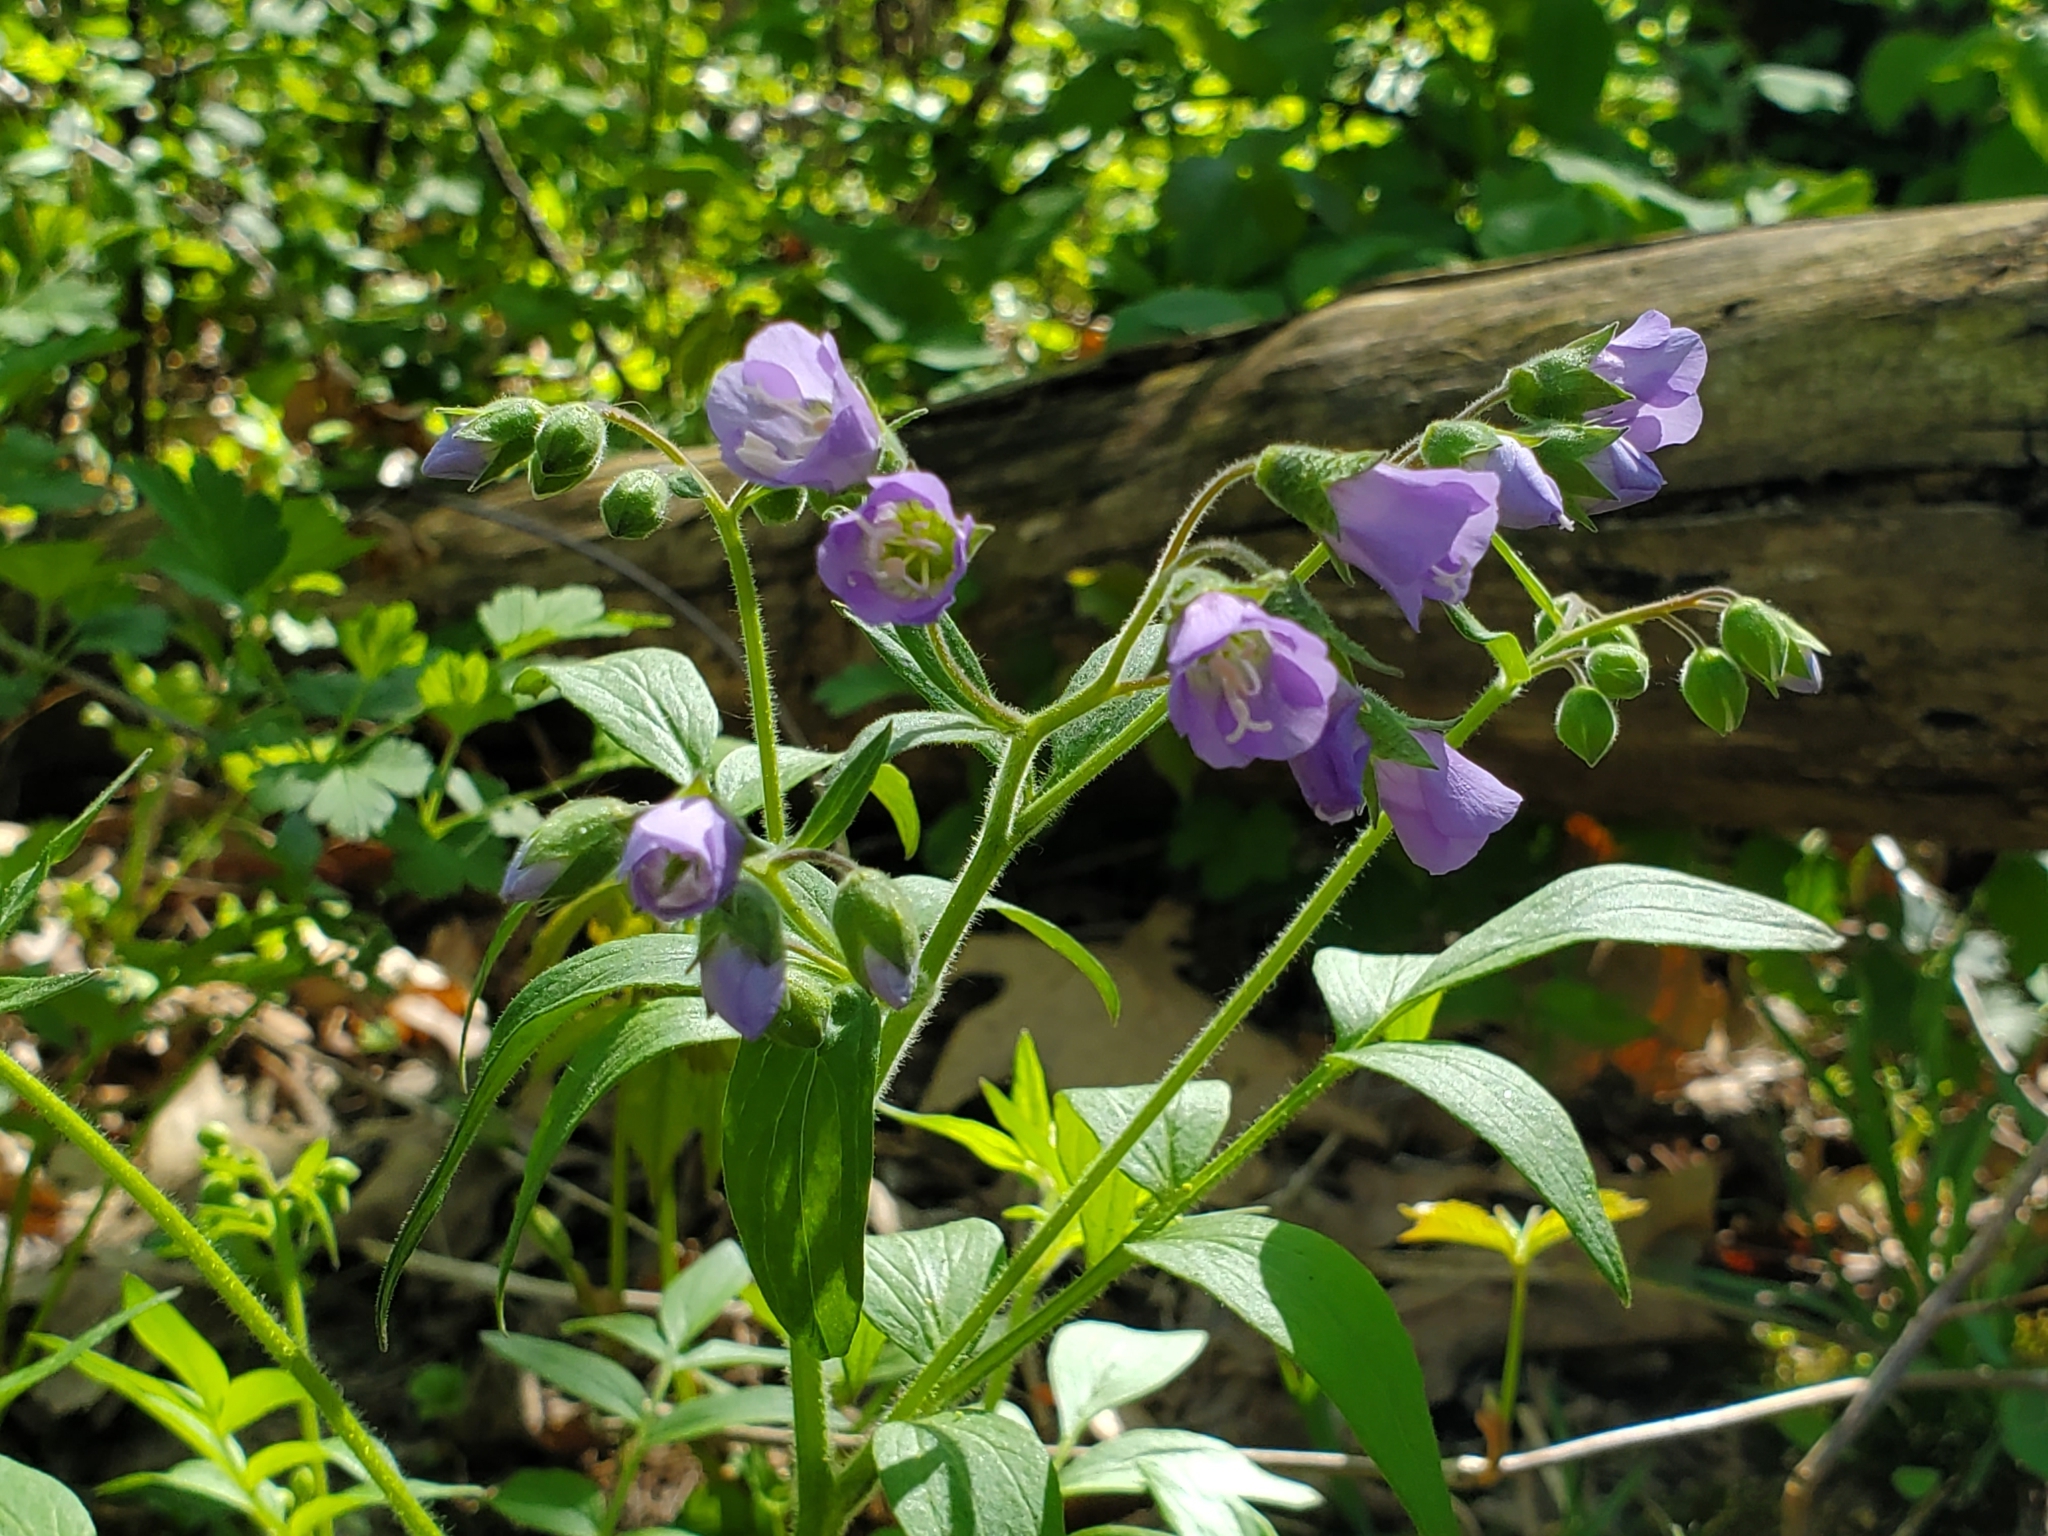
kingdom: Plantae
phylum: Tracheophyta
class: Magnoliopsida
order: Ericales
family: Polemoniaceae
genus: Polemonium
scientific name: Polemonium reptans
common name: Creeping jacob's-ladder
